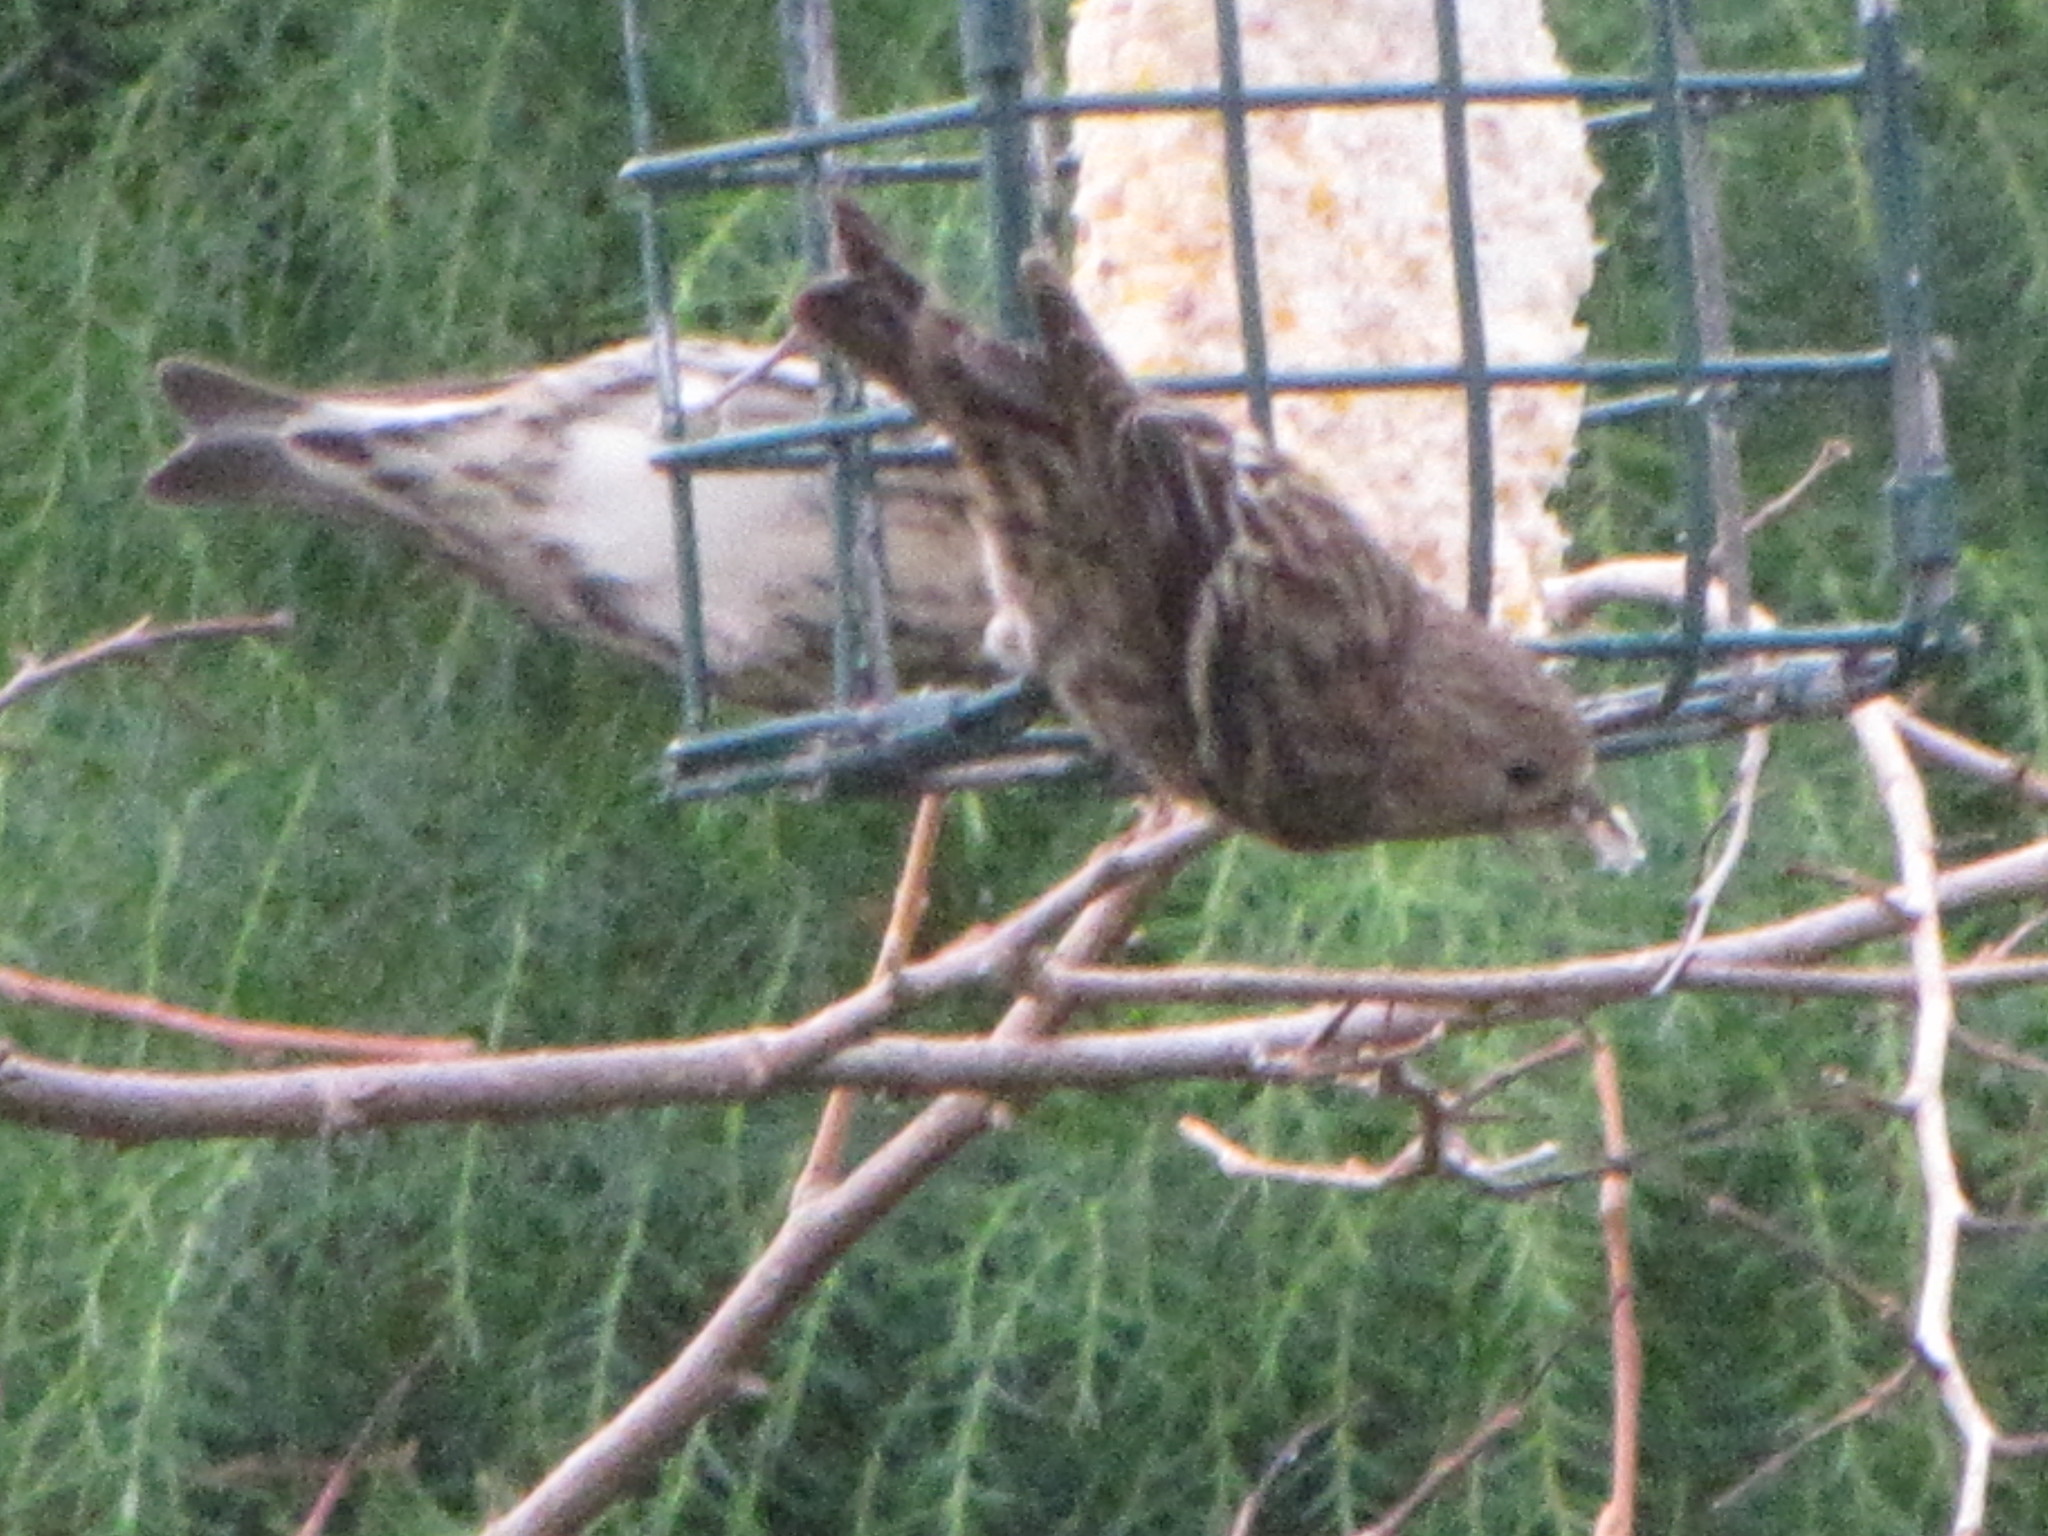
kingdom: Animalia
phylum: Chordata
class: Aves
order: Passeriformes
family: Fringillidae
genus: Spinus
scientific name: Spinus pinus
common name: Pine siskin
